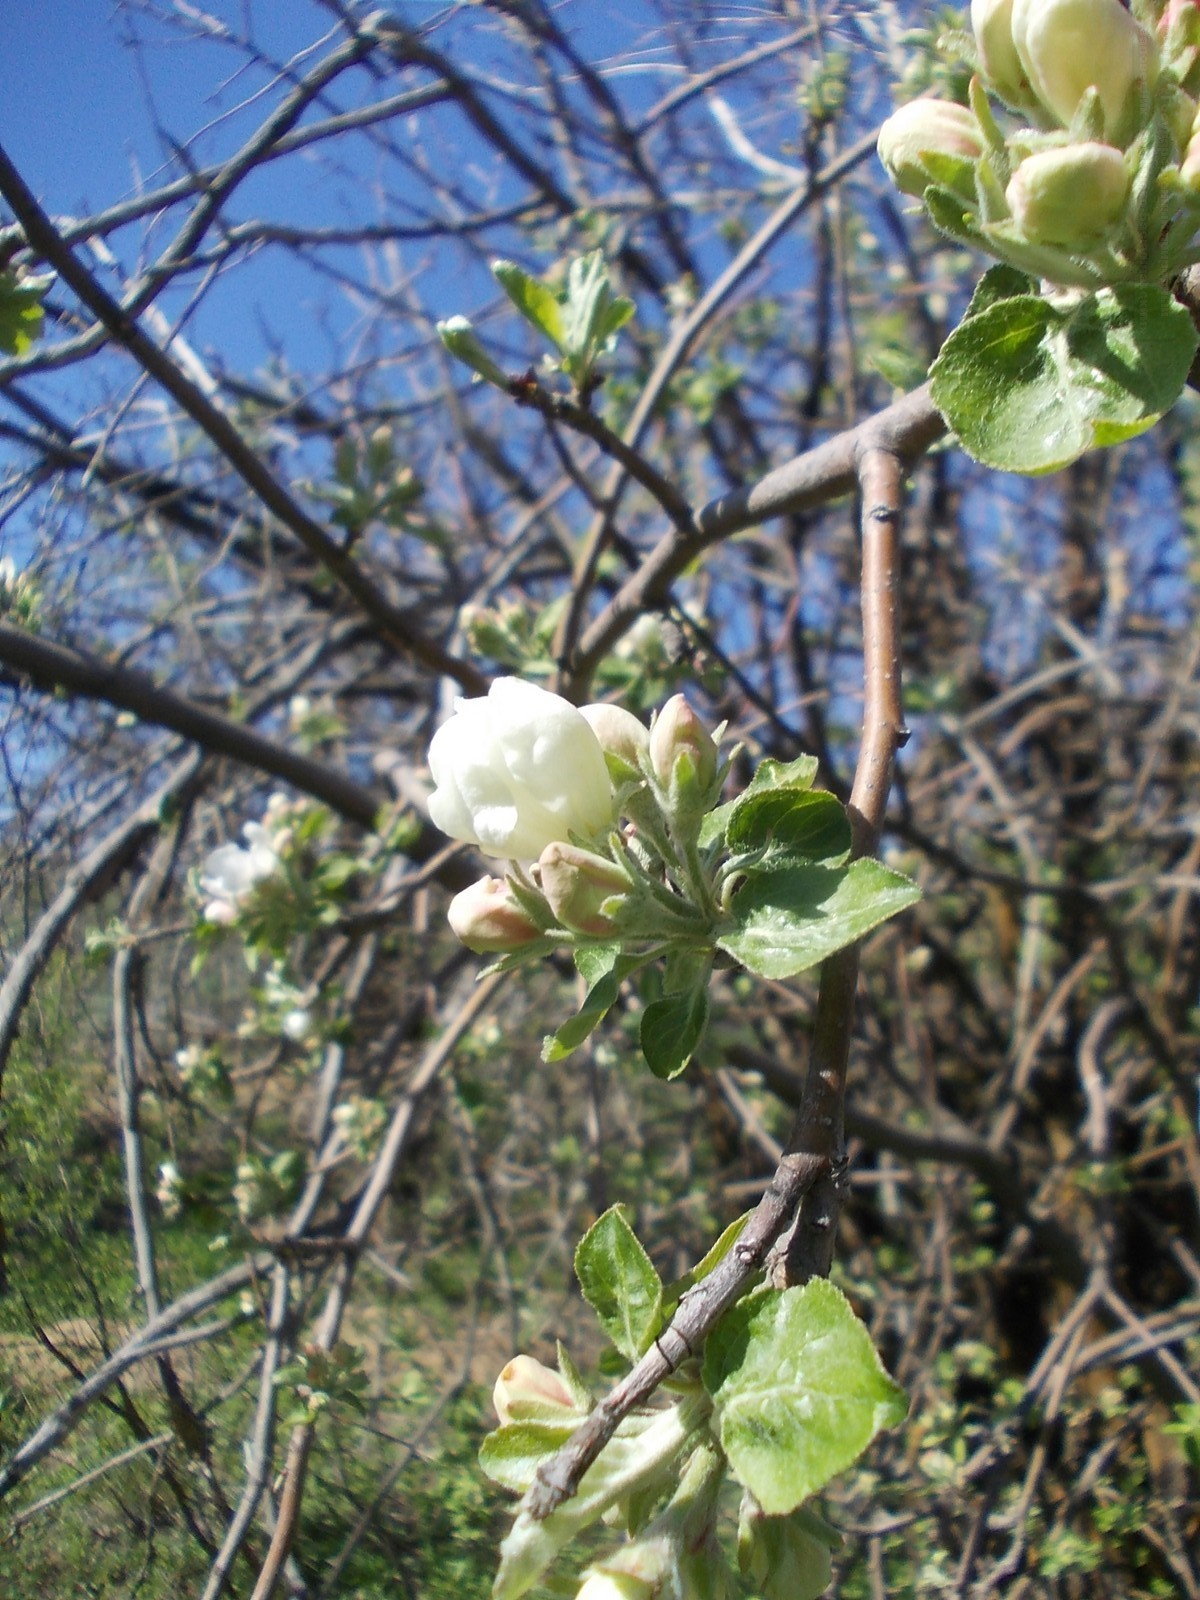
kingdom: Plantae
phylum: Tracheophyta
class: Magnoliopsida
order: Rosales
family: Rosaceae
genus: Malus
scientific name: Malus domestica
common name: Apple
